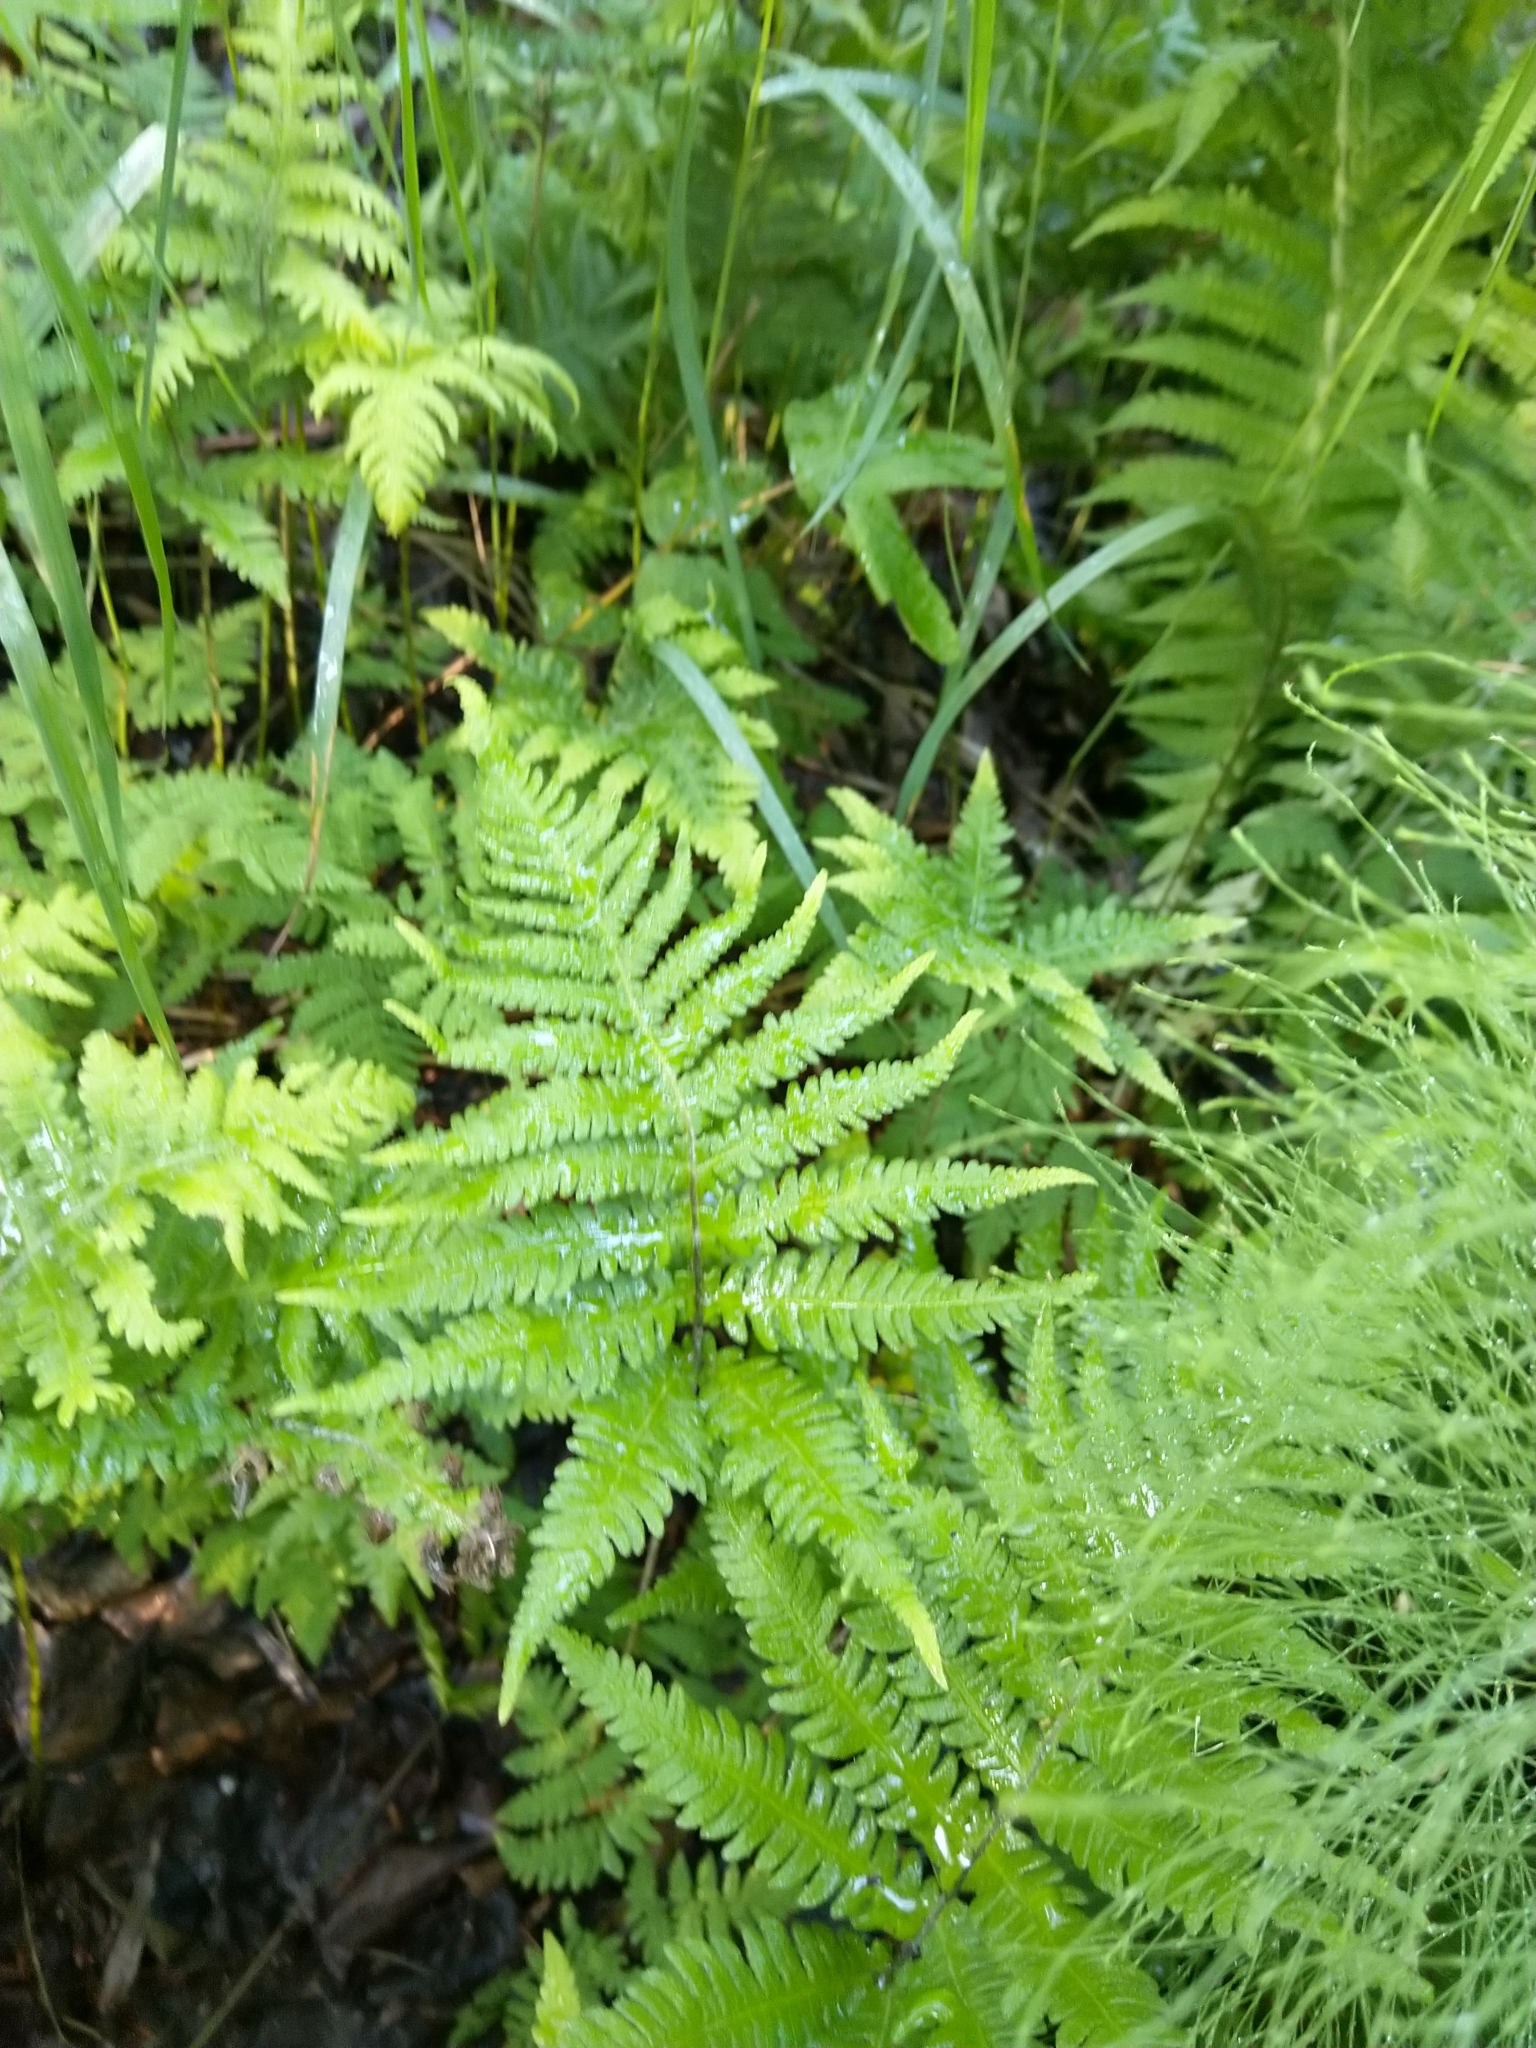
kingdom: Plantae
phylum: Tracheophyta
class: Polypodiopsida
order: Polypodiales
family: Thelypteridaceae
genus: Phegopteris
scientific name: Phegopteris connectilis
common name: Beech fern
